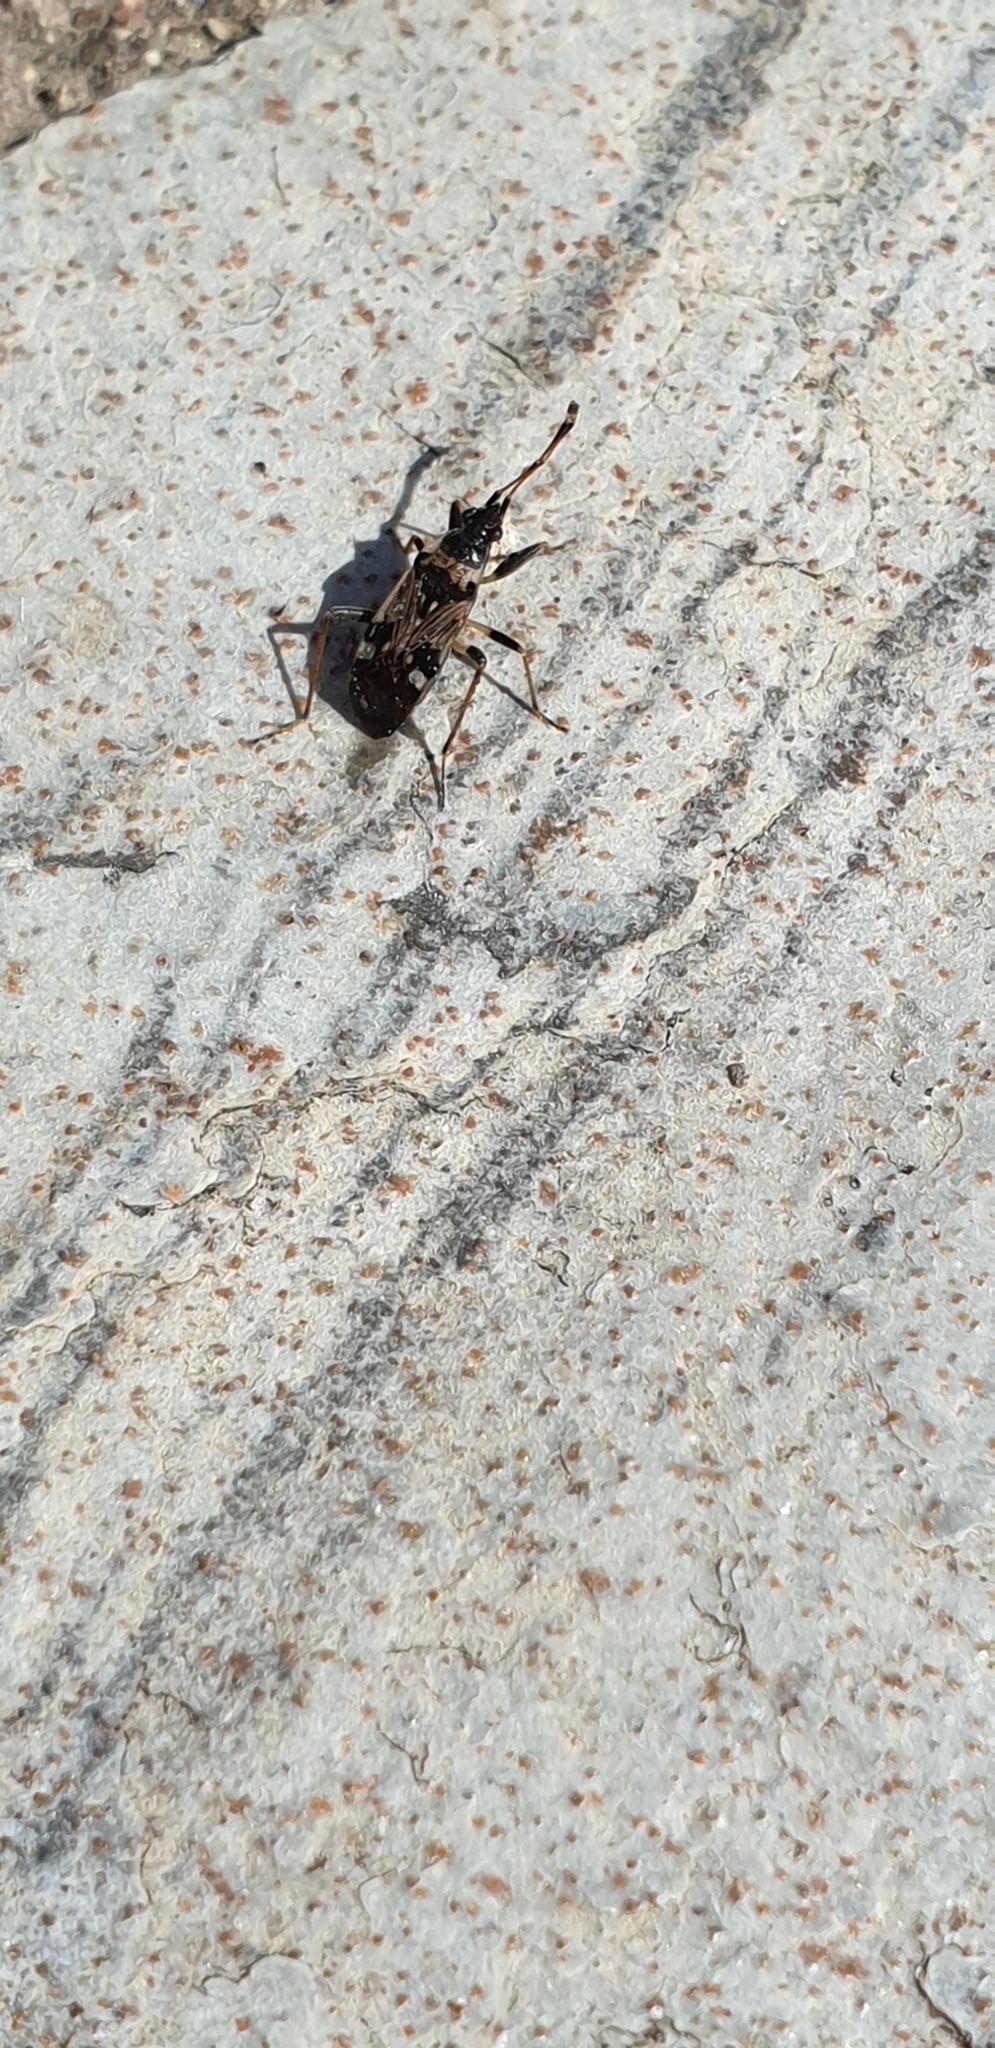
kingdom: Animalia
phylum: Arthropoda
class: Insecta
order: Hemiptera
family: Rhyparochromidae
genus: Beosus
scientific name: Beosus maritimus
